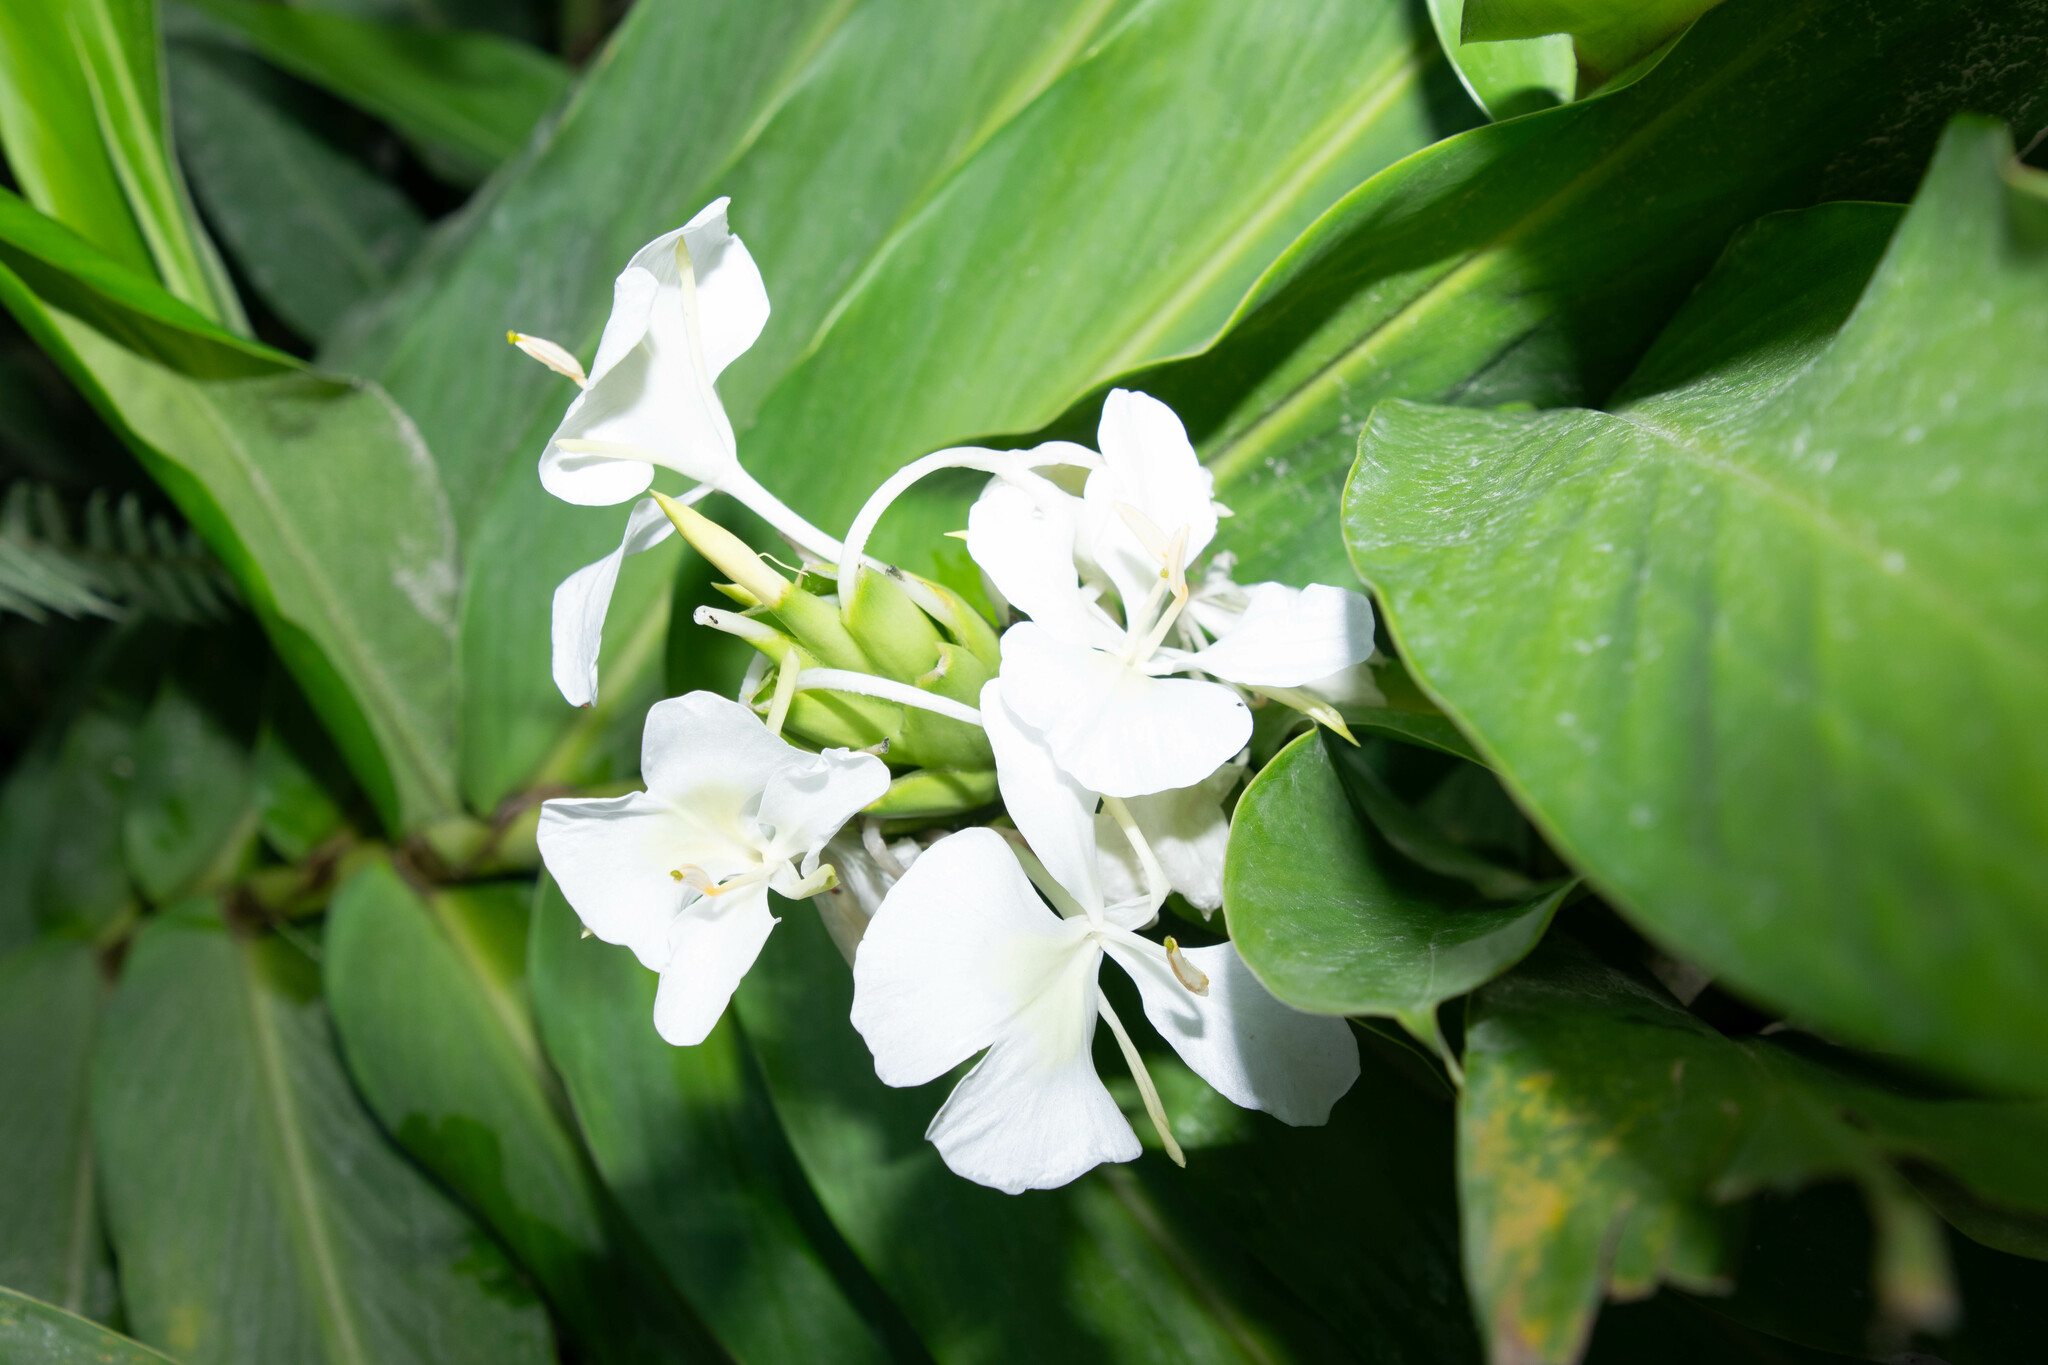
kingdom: Plantae
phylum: Tracheophyta
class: Liliopsida
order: Zingiberales
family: Zingiberaceae
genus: Hedychium
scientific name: Hedychium coronarium
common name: White garland-lily
